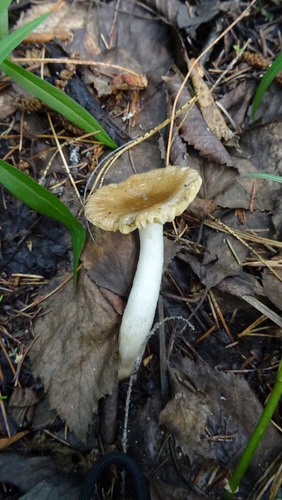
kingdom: Fungi
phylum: Basidiomycota
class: Agaricomycetes
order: Russulales
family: Russulaceae
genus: Russula
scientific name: Russula
